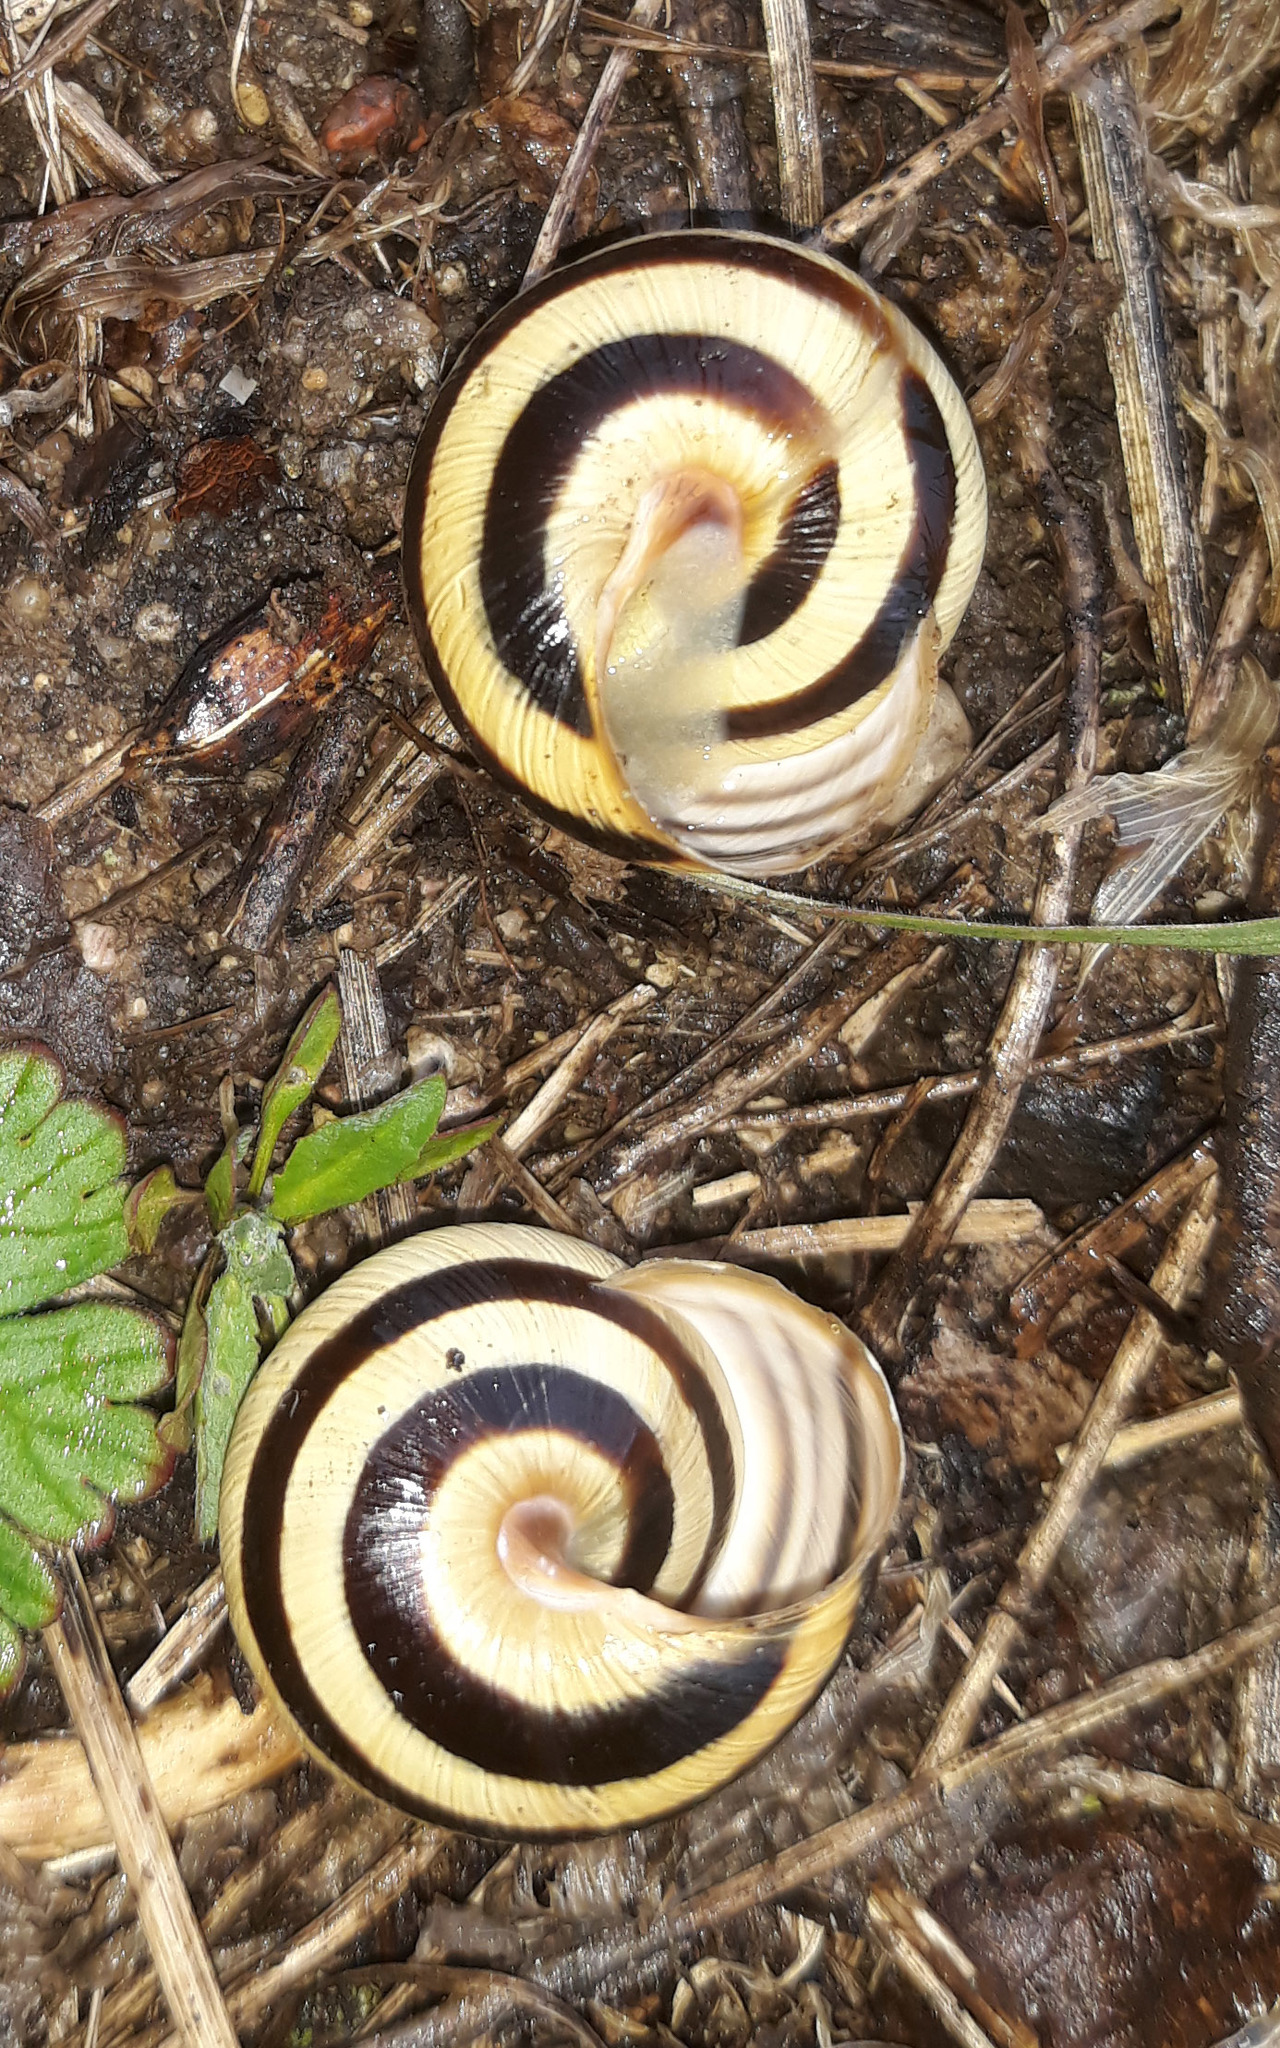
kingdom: Animalia
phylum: Mollusca
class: Gastropoda
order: Stylommatophora
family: Helicidae
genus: Caucasotachea
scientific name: Caucasotachea vindobonensis
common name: European helicid land snail
